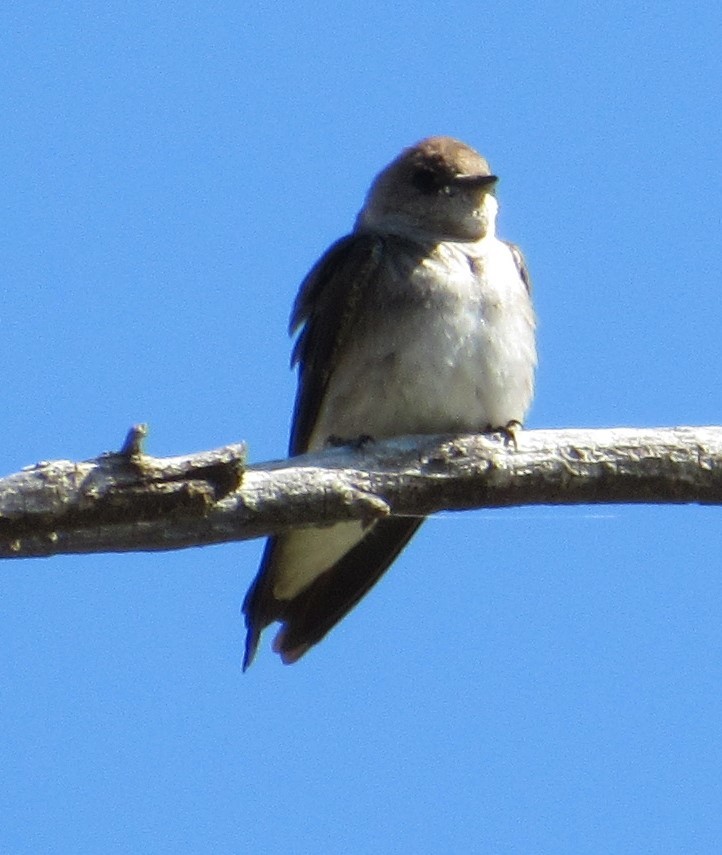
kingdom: Animalia
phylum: Chordata
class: Aves
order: Passeriformes
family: Hirundinidae
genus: Stelgidopteryx
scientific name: Stelgidopteryx serripennis
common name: Northern rough-winged swallow
